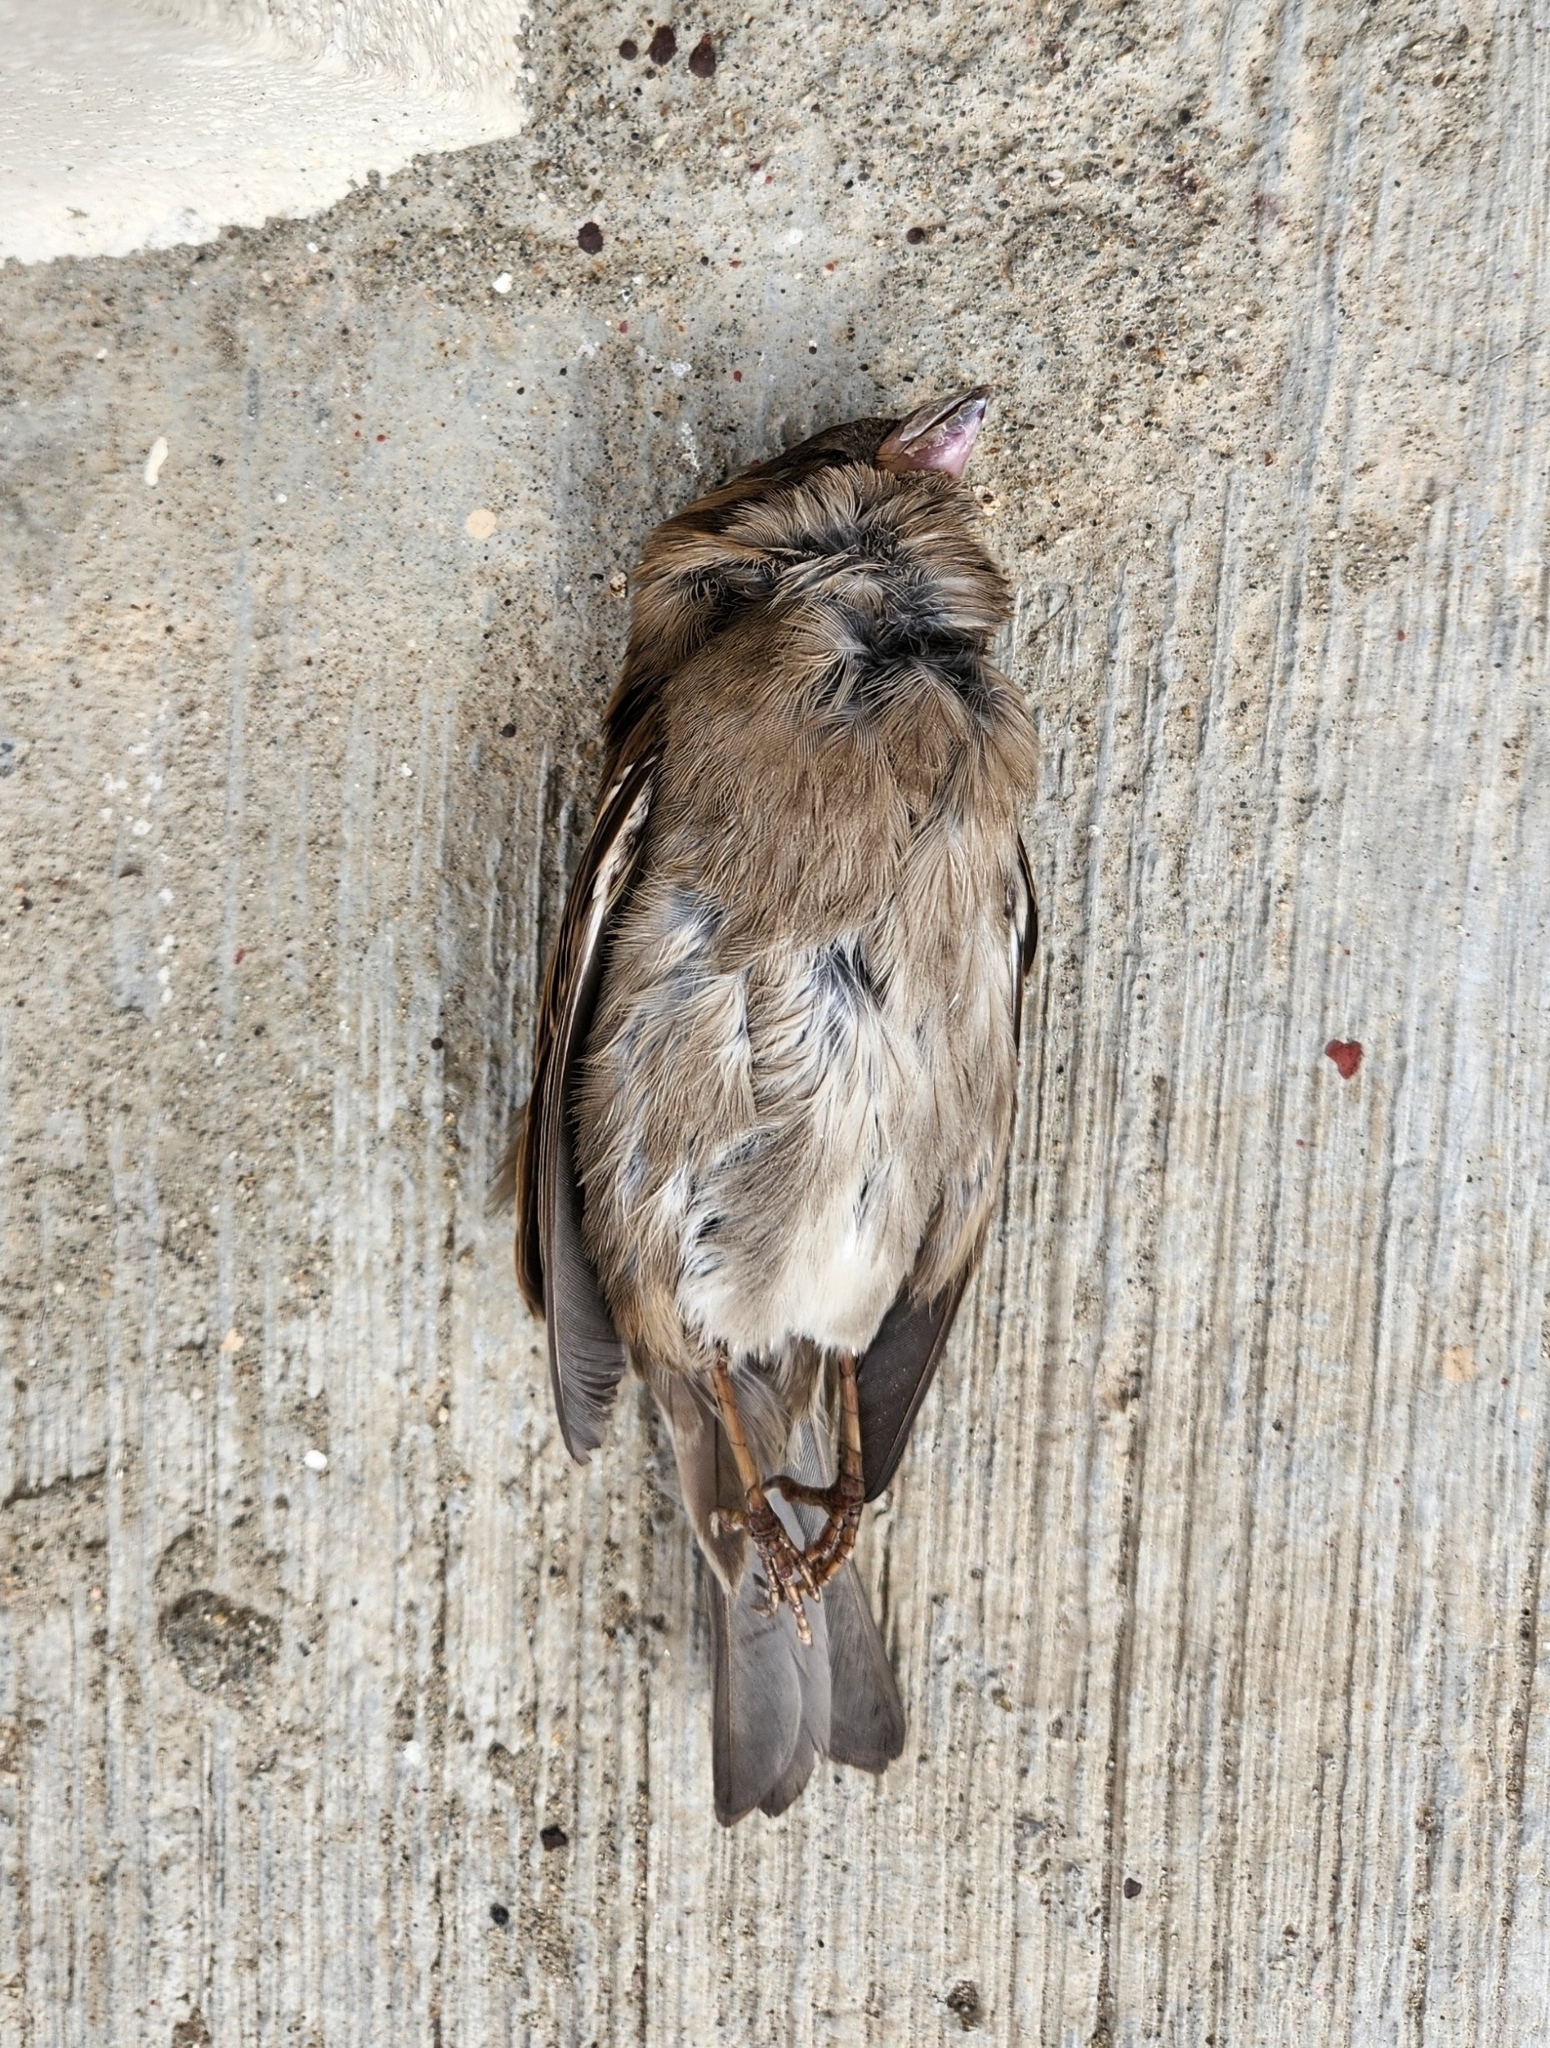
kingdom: Animalia
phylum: Chordata
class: Aves
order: Passeriformes
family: Passeridae
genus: Passer
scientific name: Passer domesticus
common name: House sparrow
